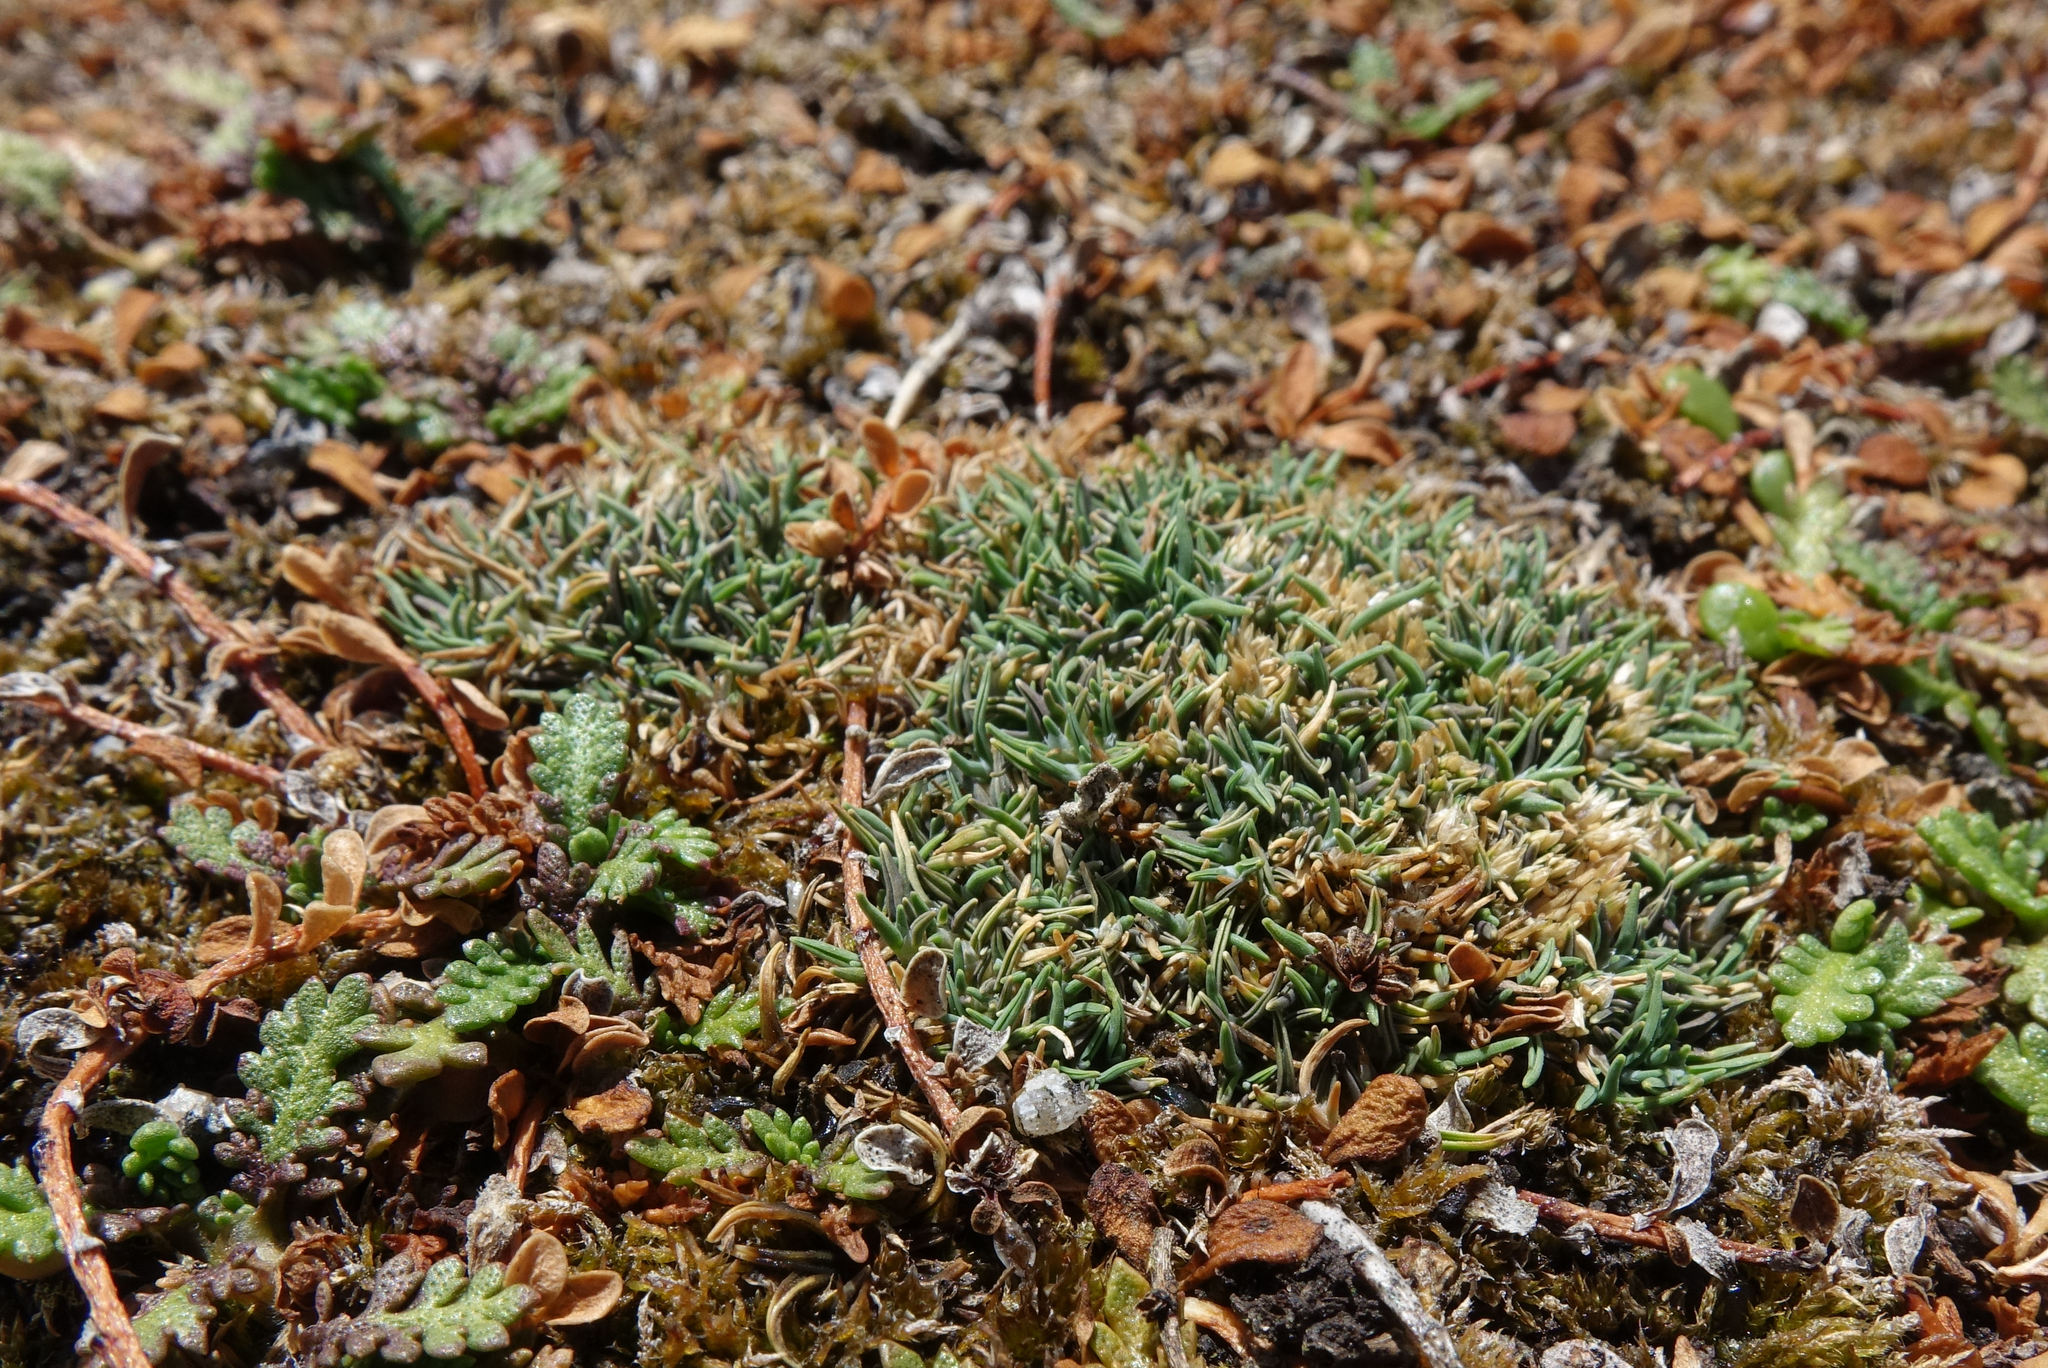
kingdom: Plantae
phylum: Tracheophyta
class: Liliopsida
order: Poales
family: Poaceae
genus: Agrostis
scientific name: Agrostis muscosa
